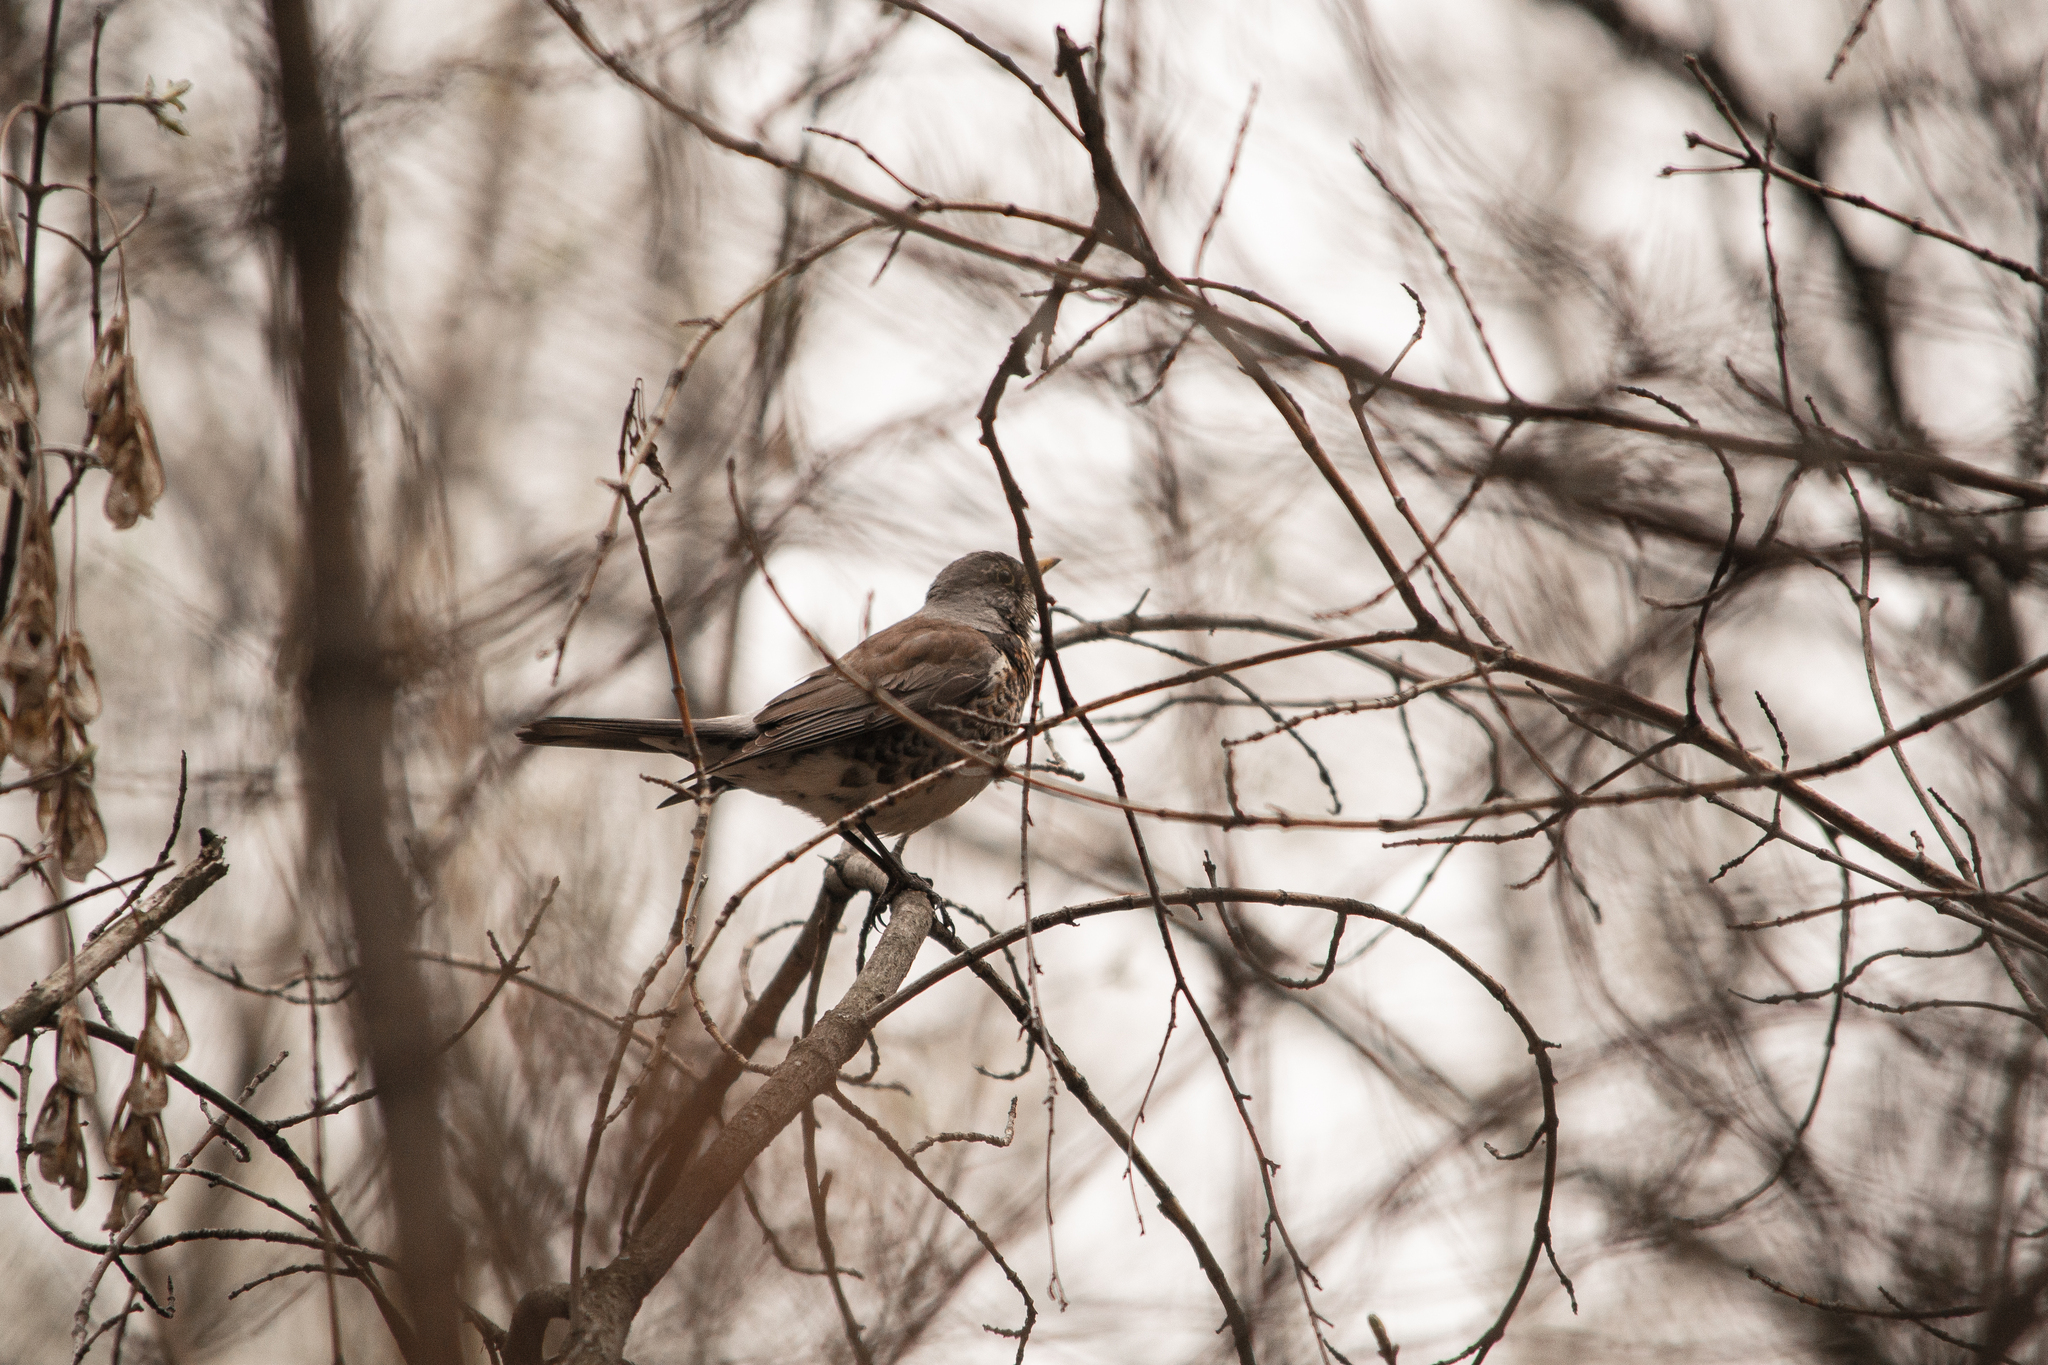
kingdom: Animalia
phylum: Chordata
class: Aves
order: Passeriformes
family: Turdidae
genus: Turdus
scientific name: Turdus pilaris
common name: Fieldfare
